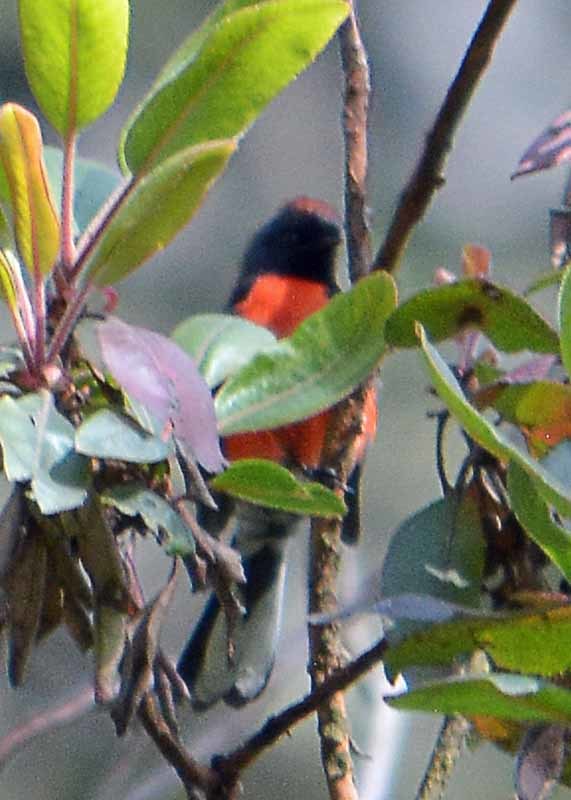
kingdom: Animalia
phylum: Chordata
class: Aves
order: Passeriformes
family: Parulidae
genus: Myioborus
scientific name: Myioborus miniatus
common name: Slate-throated redstart
